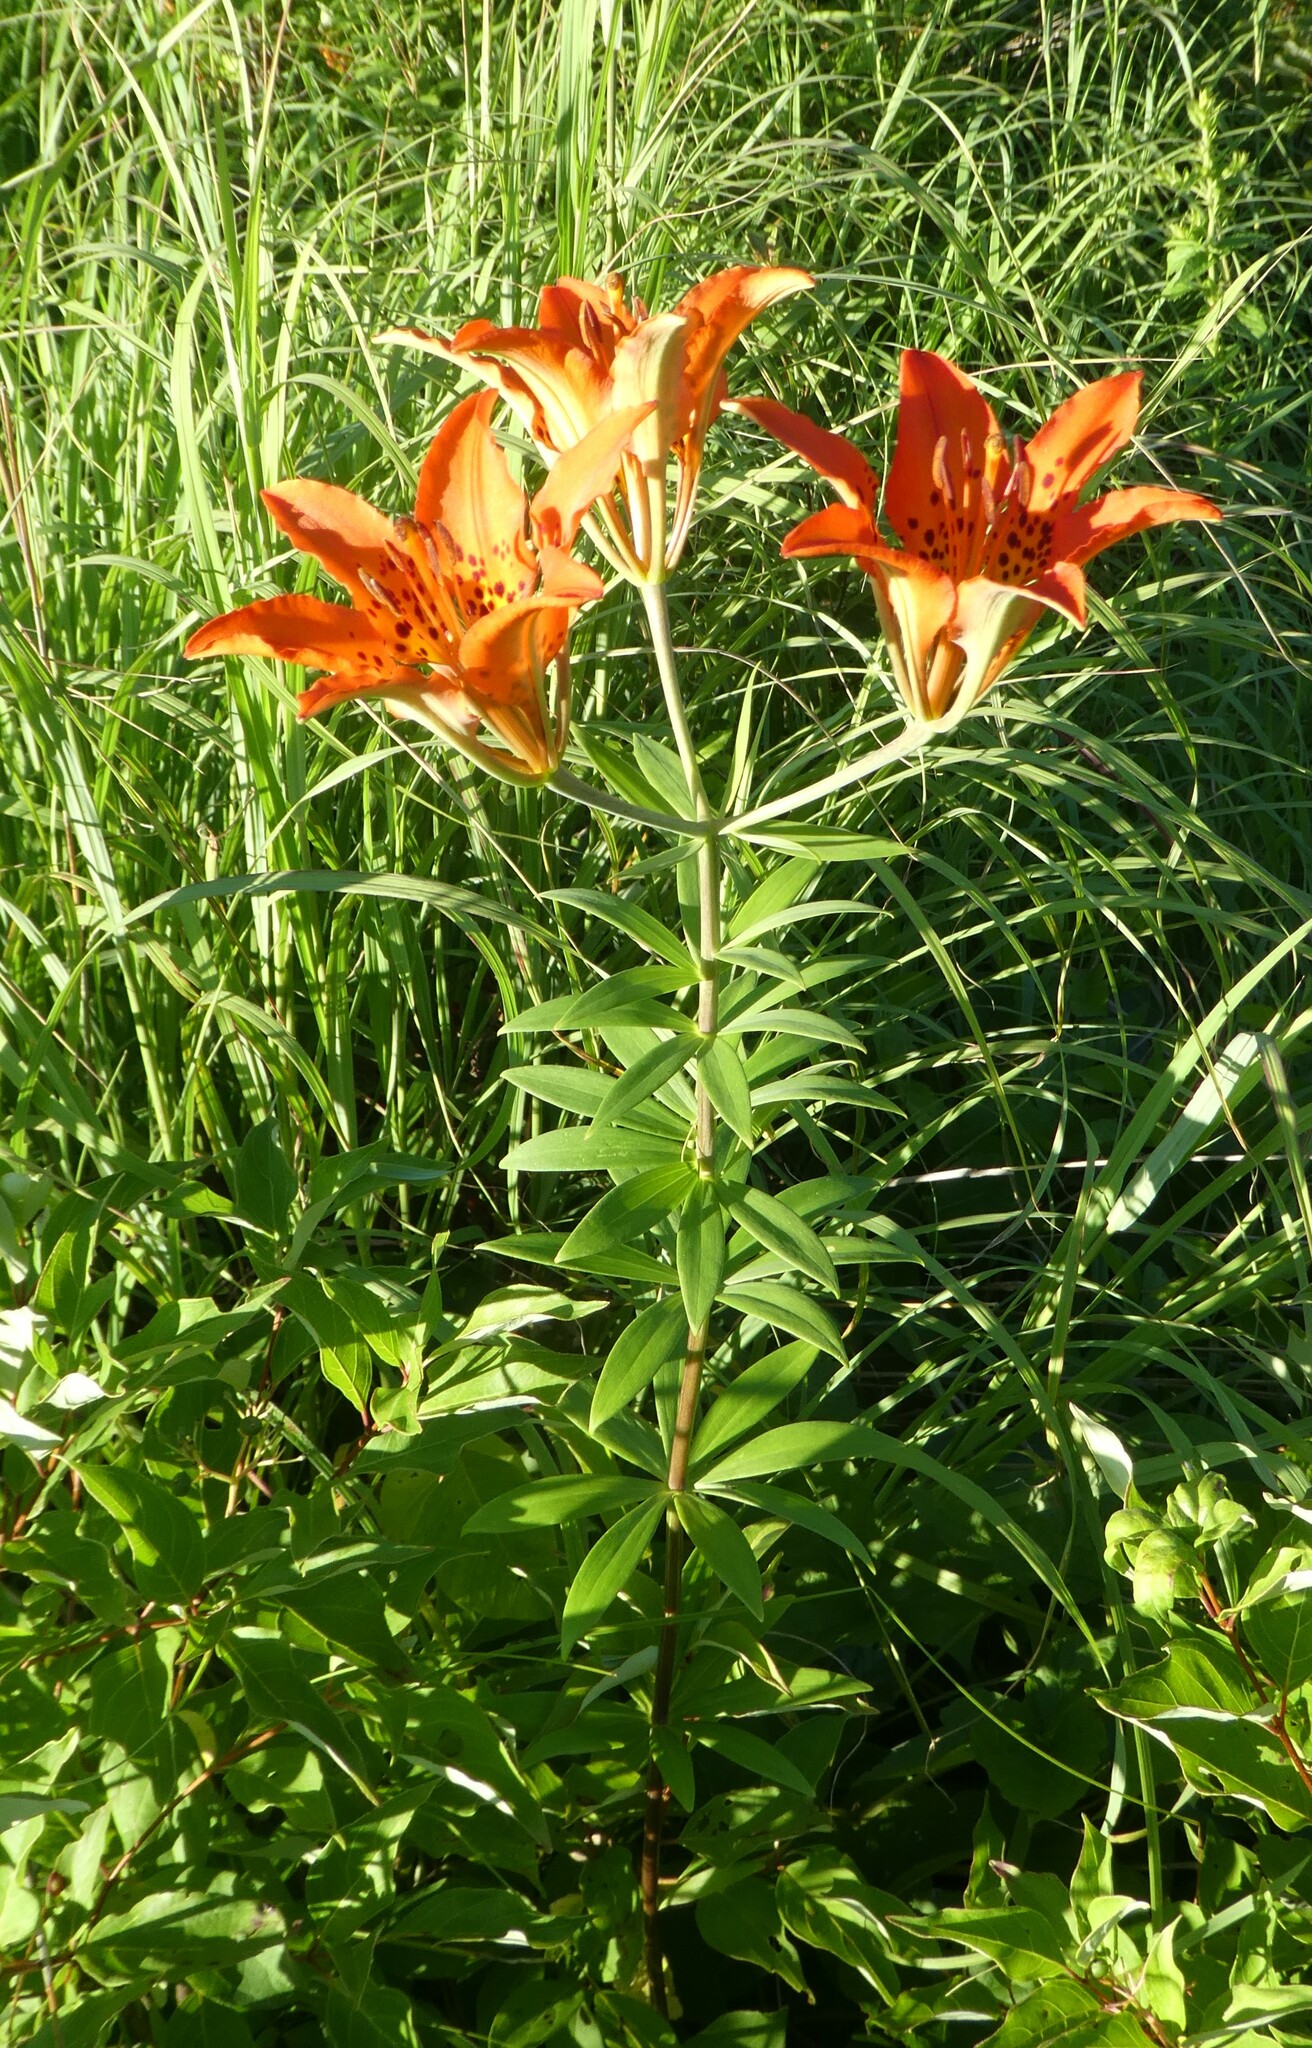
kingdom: Plantae
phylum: Tracheophyta
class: Liliopsida
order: Liliales
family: Liliaceae
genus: Lilium
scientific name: Lilium philadelphicum
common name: Red lily
